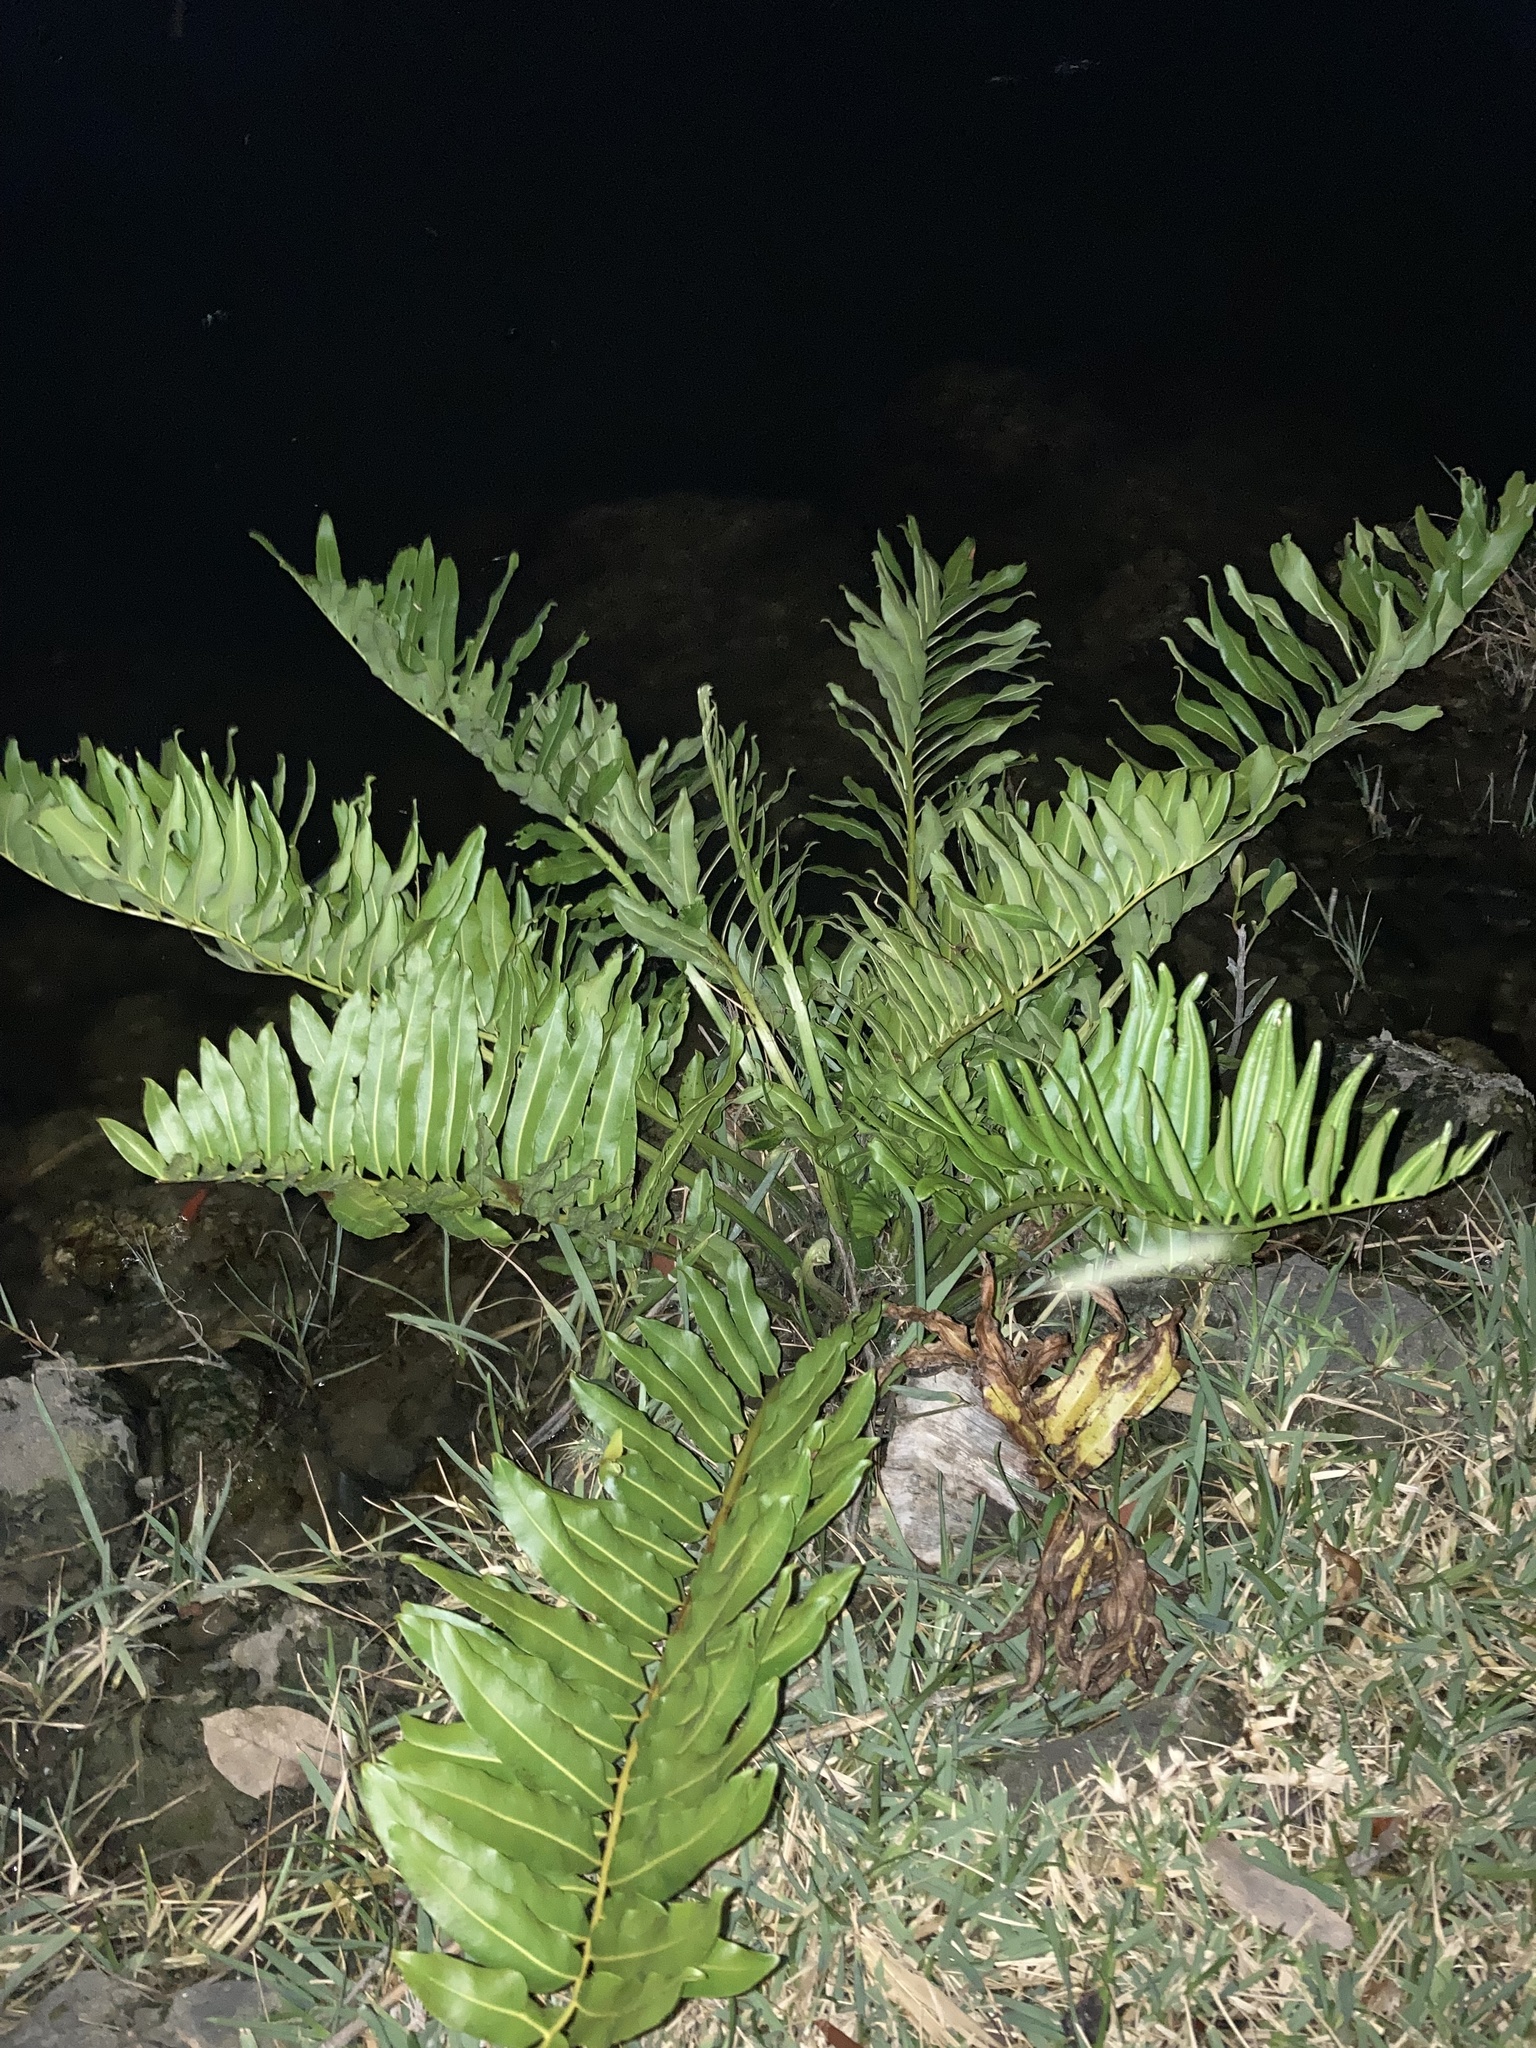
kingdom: Plantae
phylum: Tracheophyta
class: Polypodiopsida
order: Polypodiales
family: Pteridaceae
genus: Acrostichum
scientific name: Acrostichum danaeifolium
